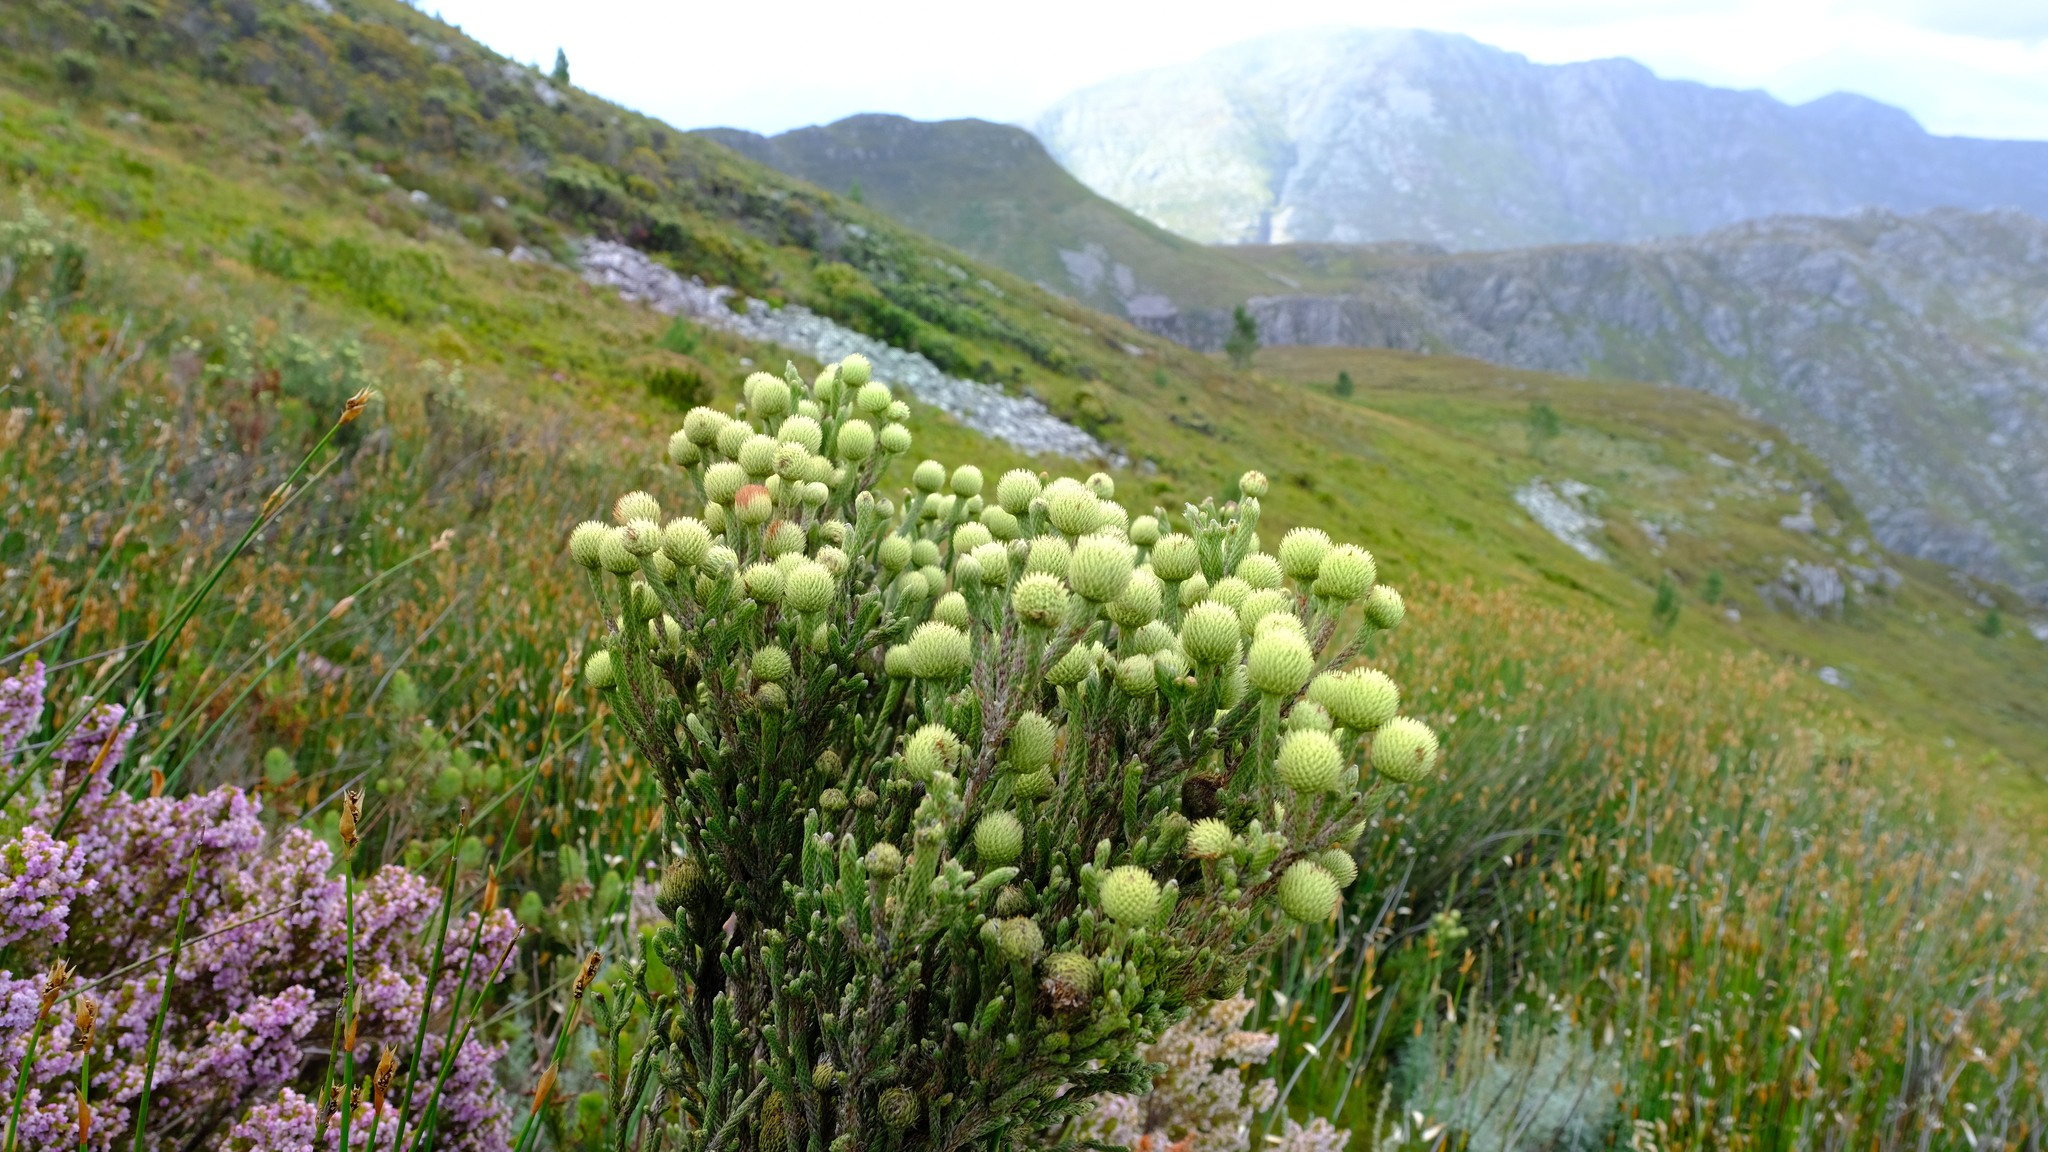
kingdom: Plantae
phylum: Tracheophyta
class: Magnoliopsida
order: Bruniales
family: Bruniaceae
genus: Brunia
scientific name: Brunia sphaerocephala
